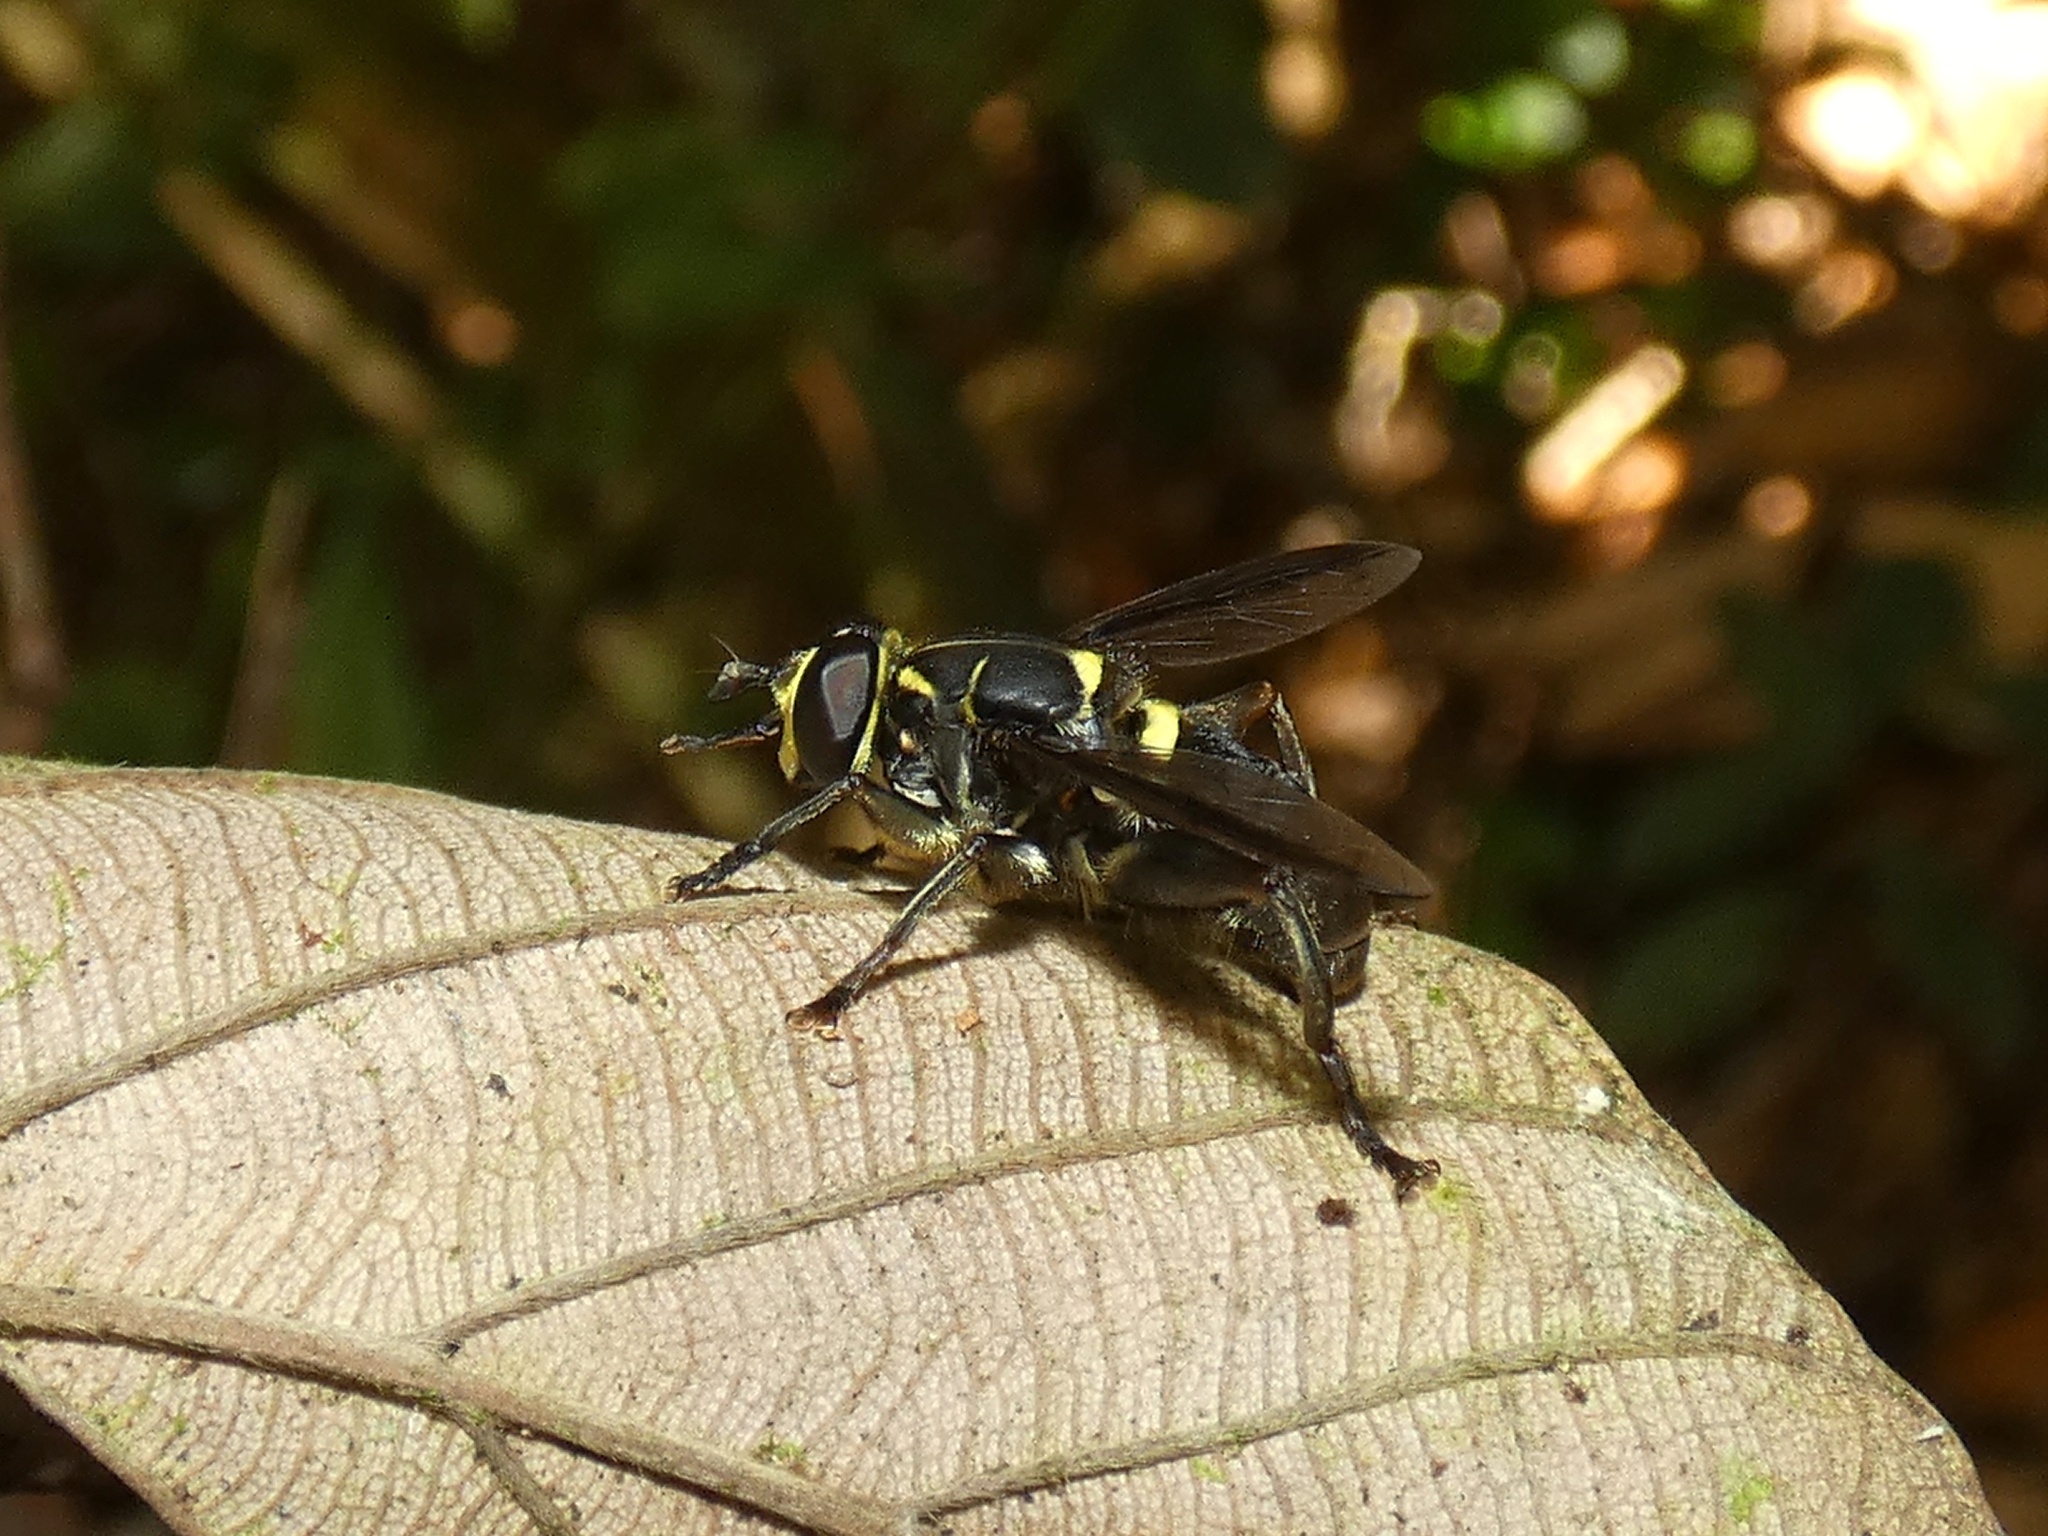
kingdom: Animalia
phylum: Arthropoda
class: Insecta
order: Diptera
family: Syrphidae
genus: Meromacrus
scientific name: Meromacrus anna
